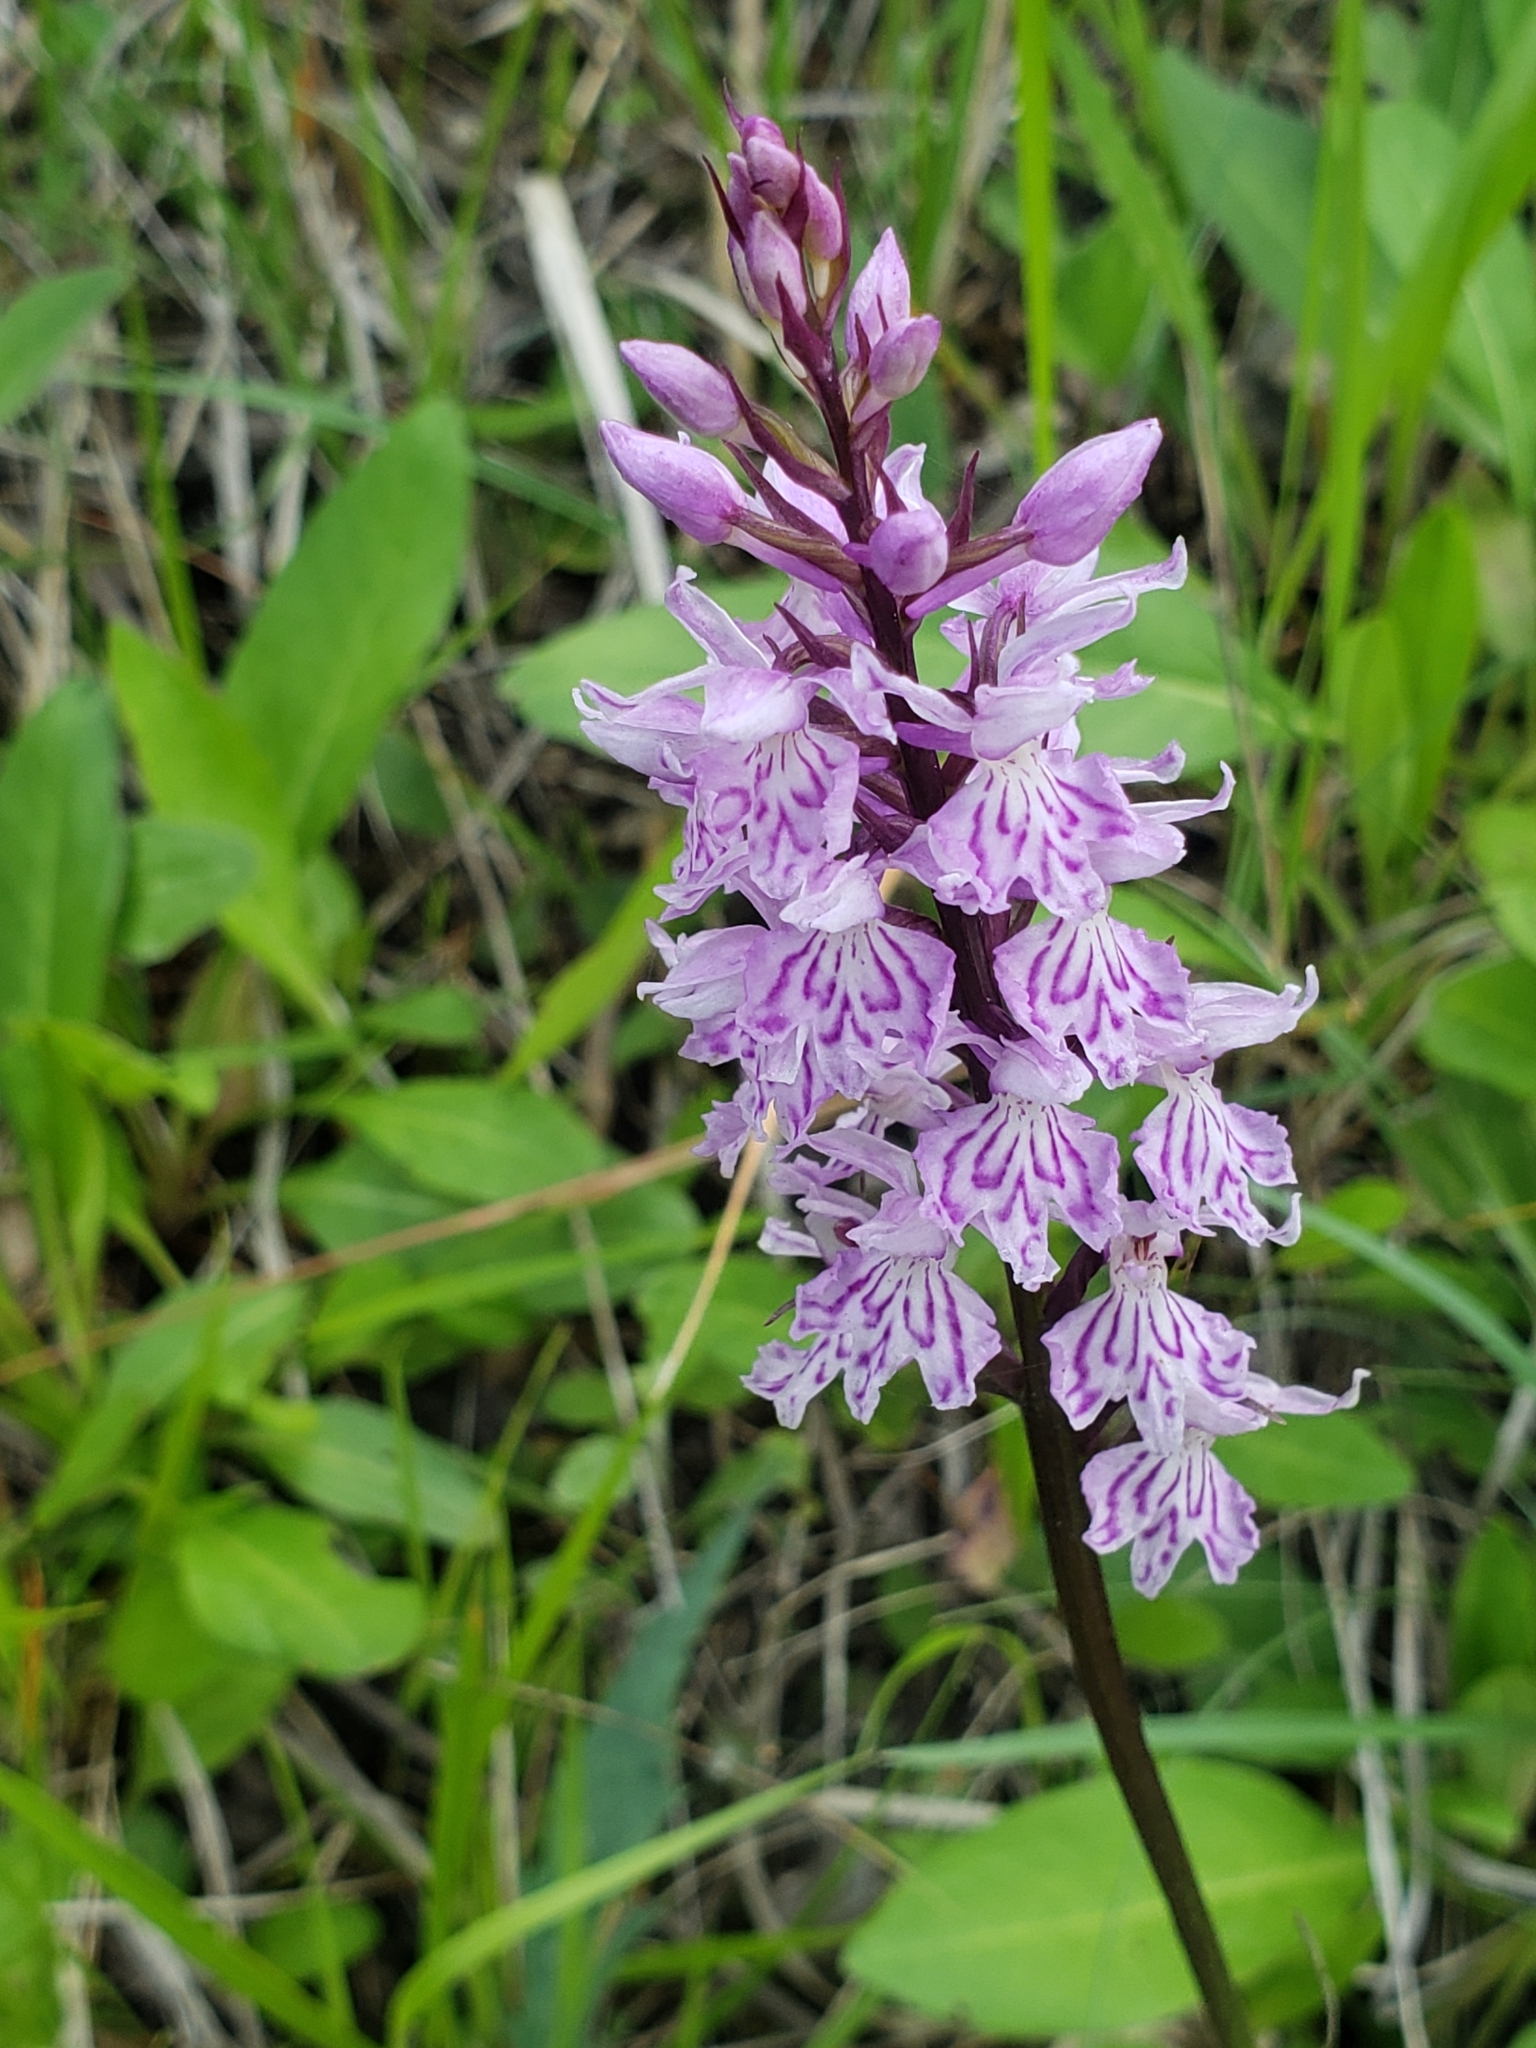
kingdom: Plantae
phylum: Tracheophyta
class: Liliopsida
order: Asparagales
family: Orchidaceae
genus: Dactylorhiza
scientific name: Dactylorhiza maculata
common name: Heath spotted-orchid
